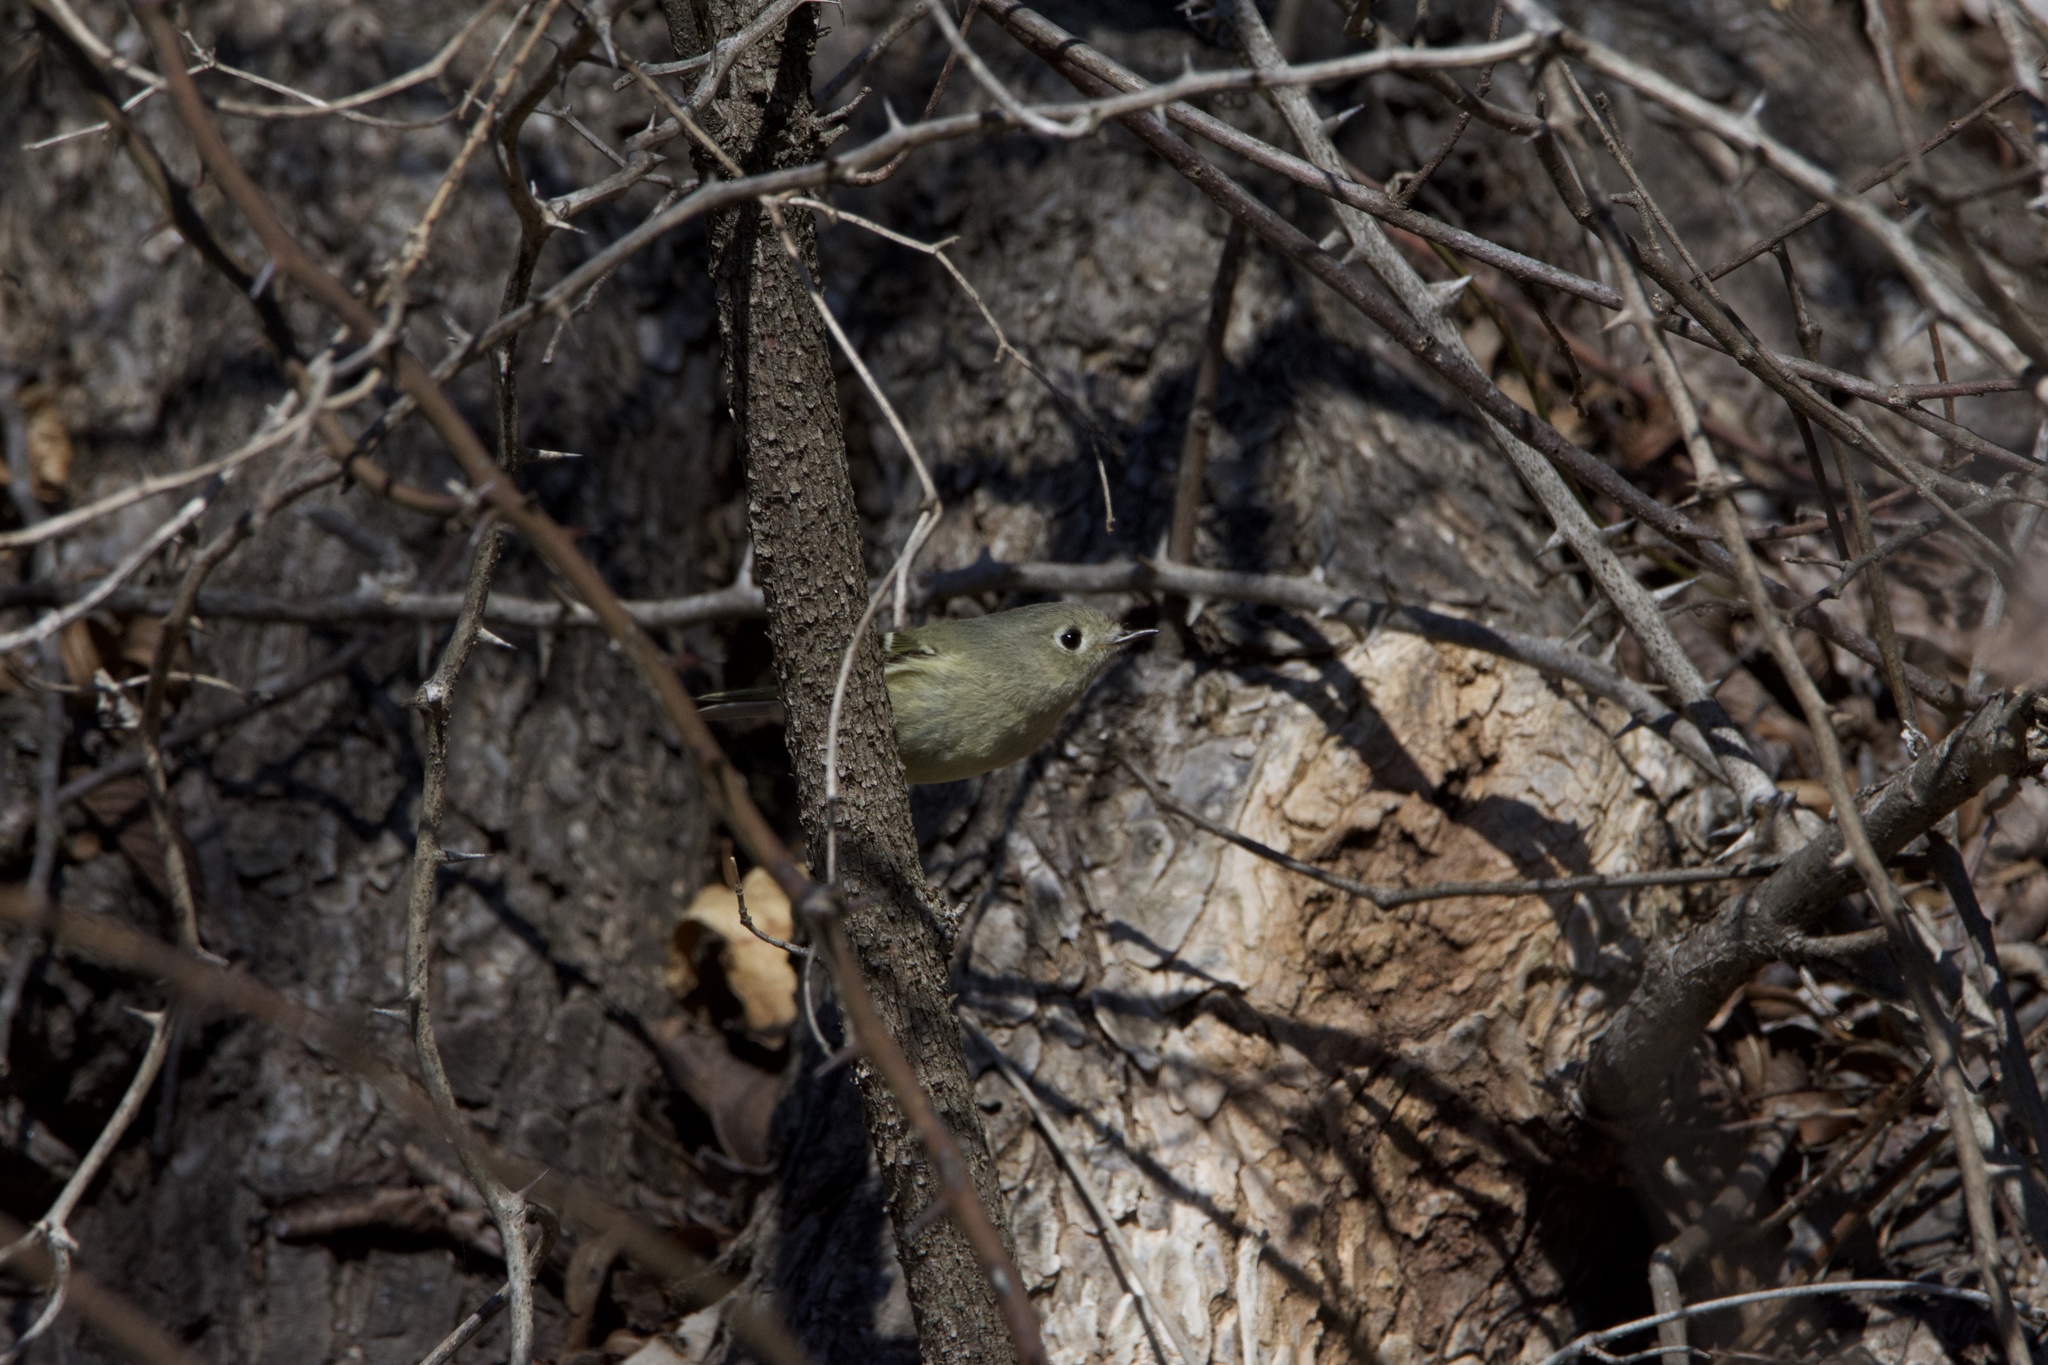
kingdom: Animalia
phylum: Chordata
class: Aves
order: Passeriformes
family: Regulidae
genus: Regulus
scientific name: Regulus calendula
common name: Ruby-crowned kinglet
